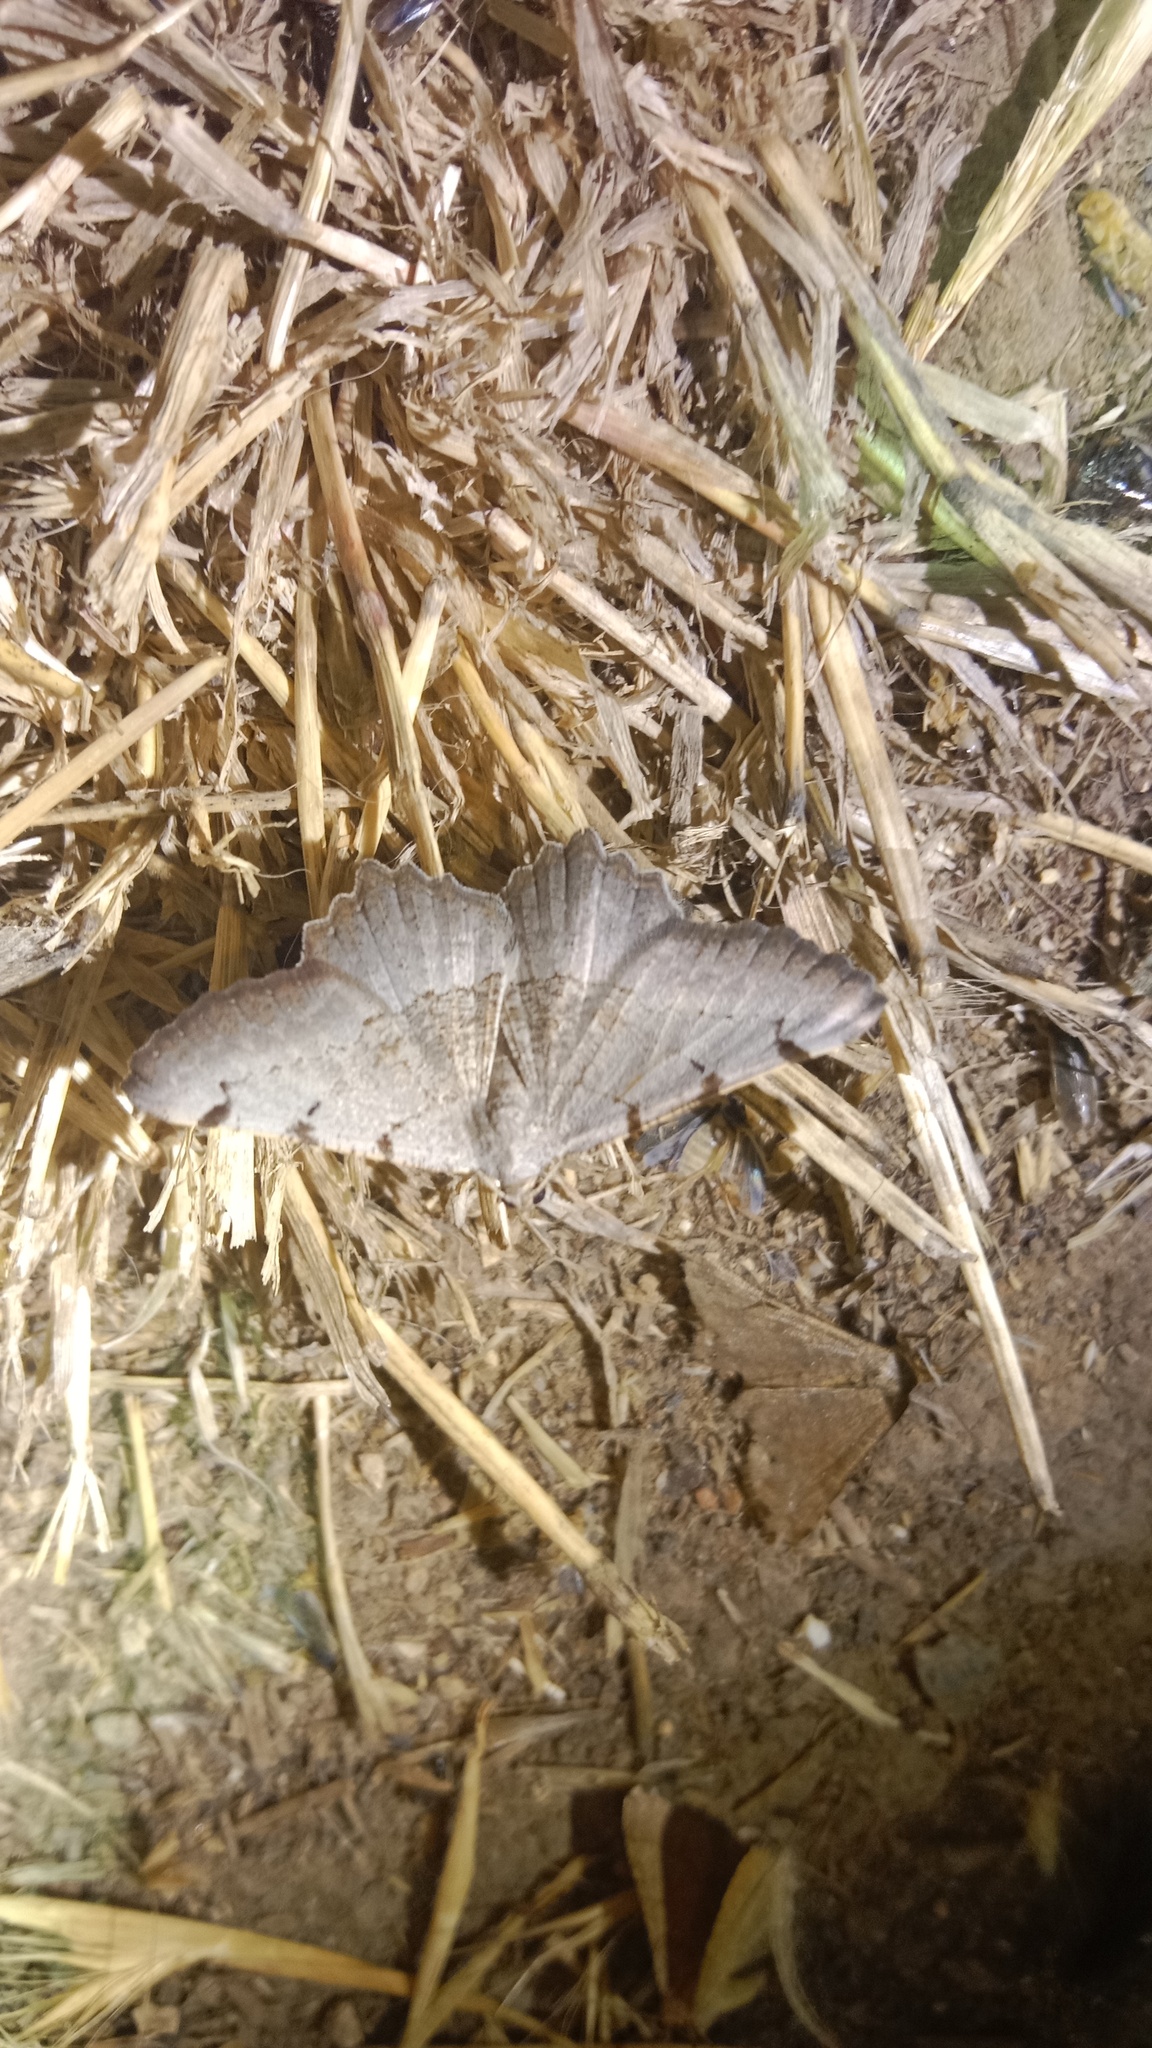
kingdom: Animalia
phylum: Arthropoda
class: Insecta
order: Lepidoptera
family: Geometridae
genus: Neognopharmia
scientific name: Neognopharmia stevenaria
